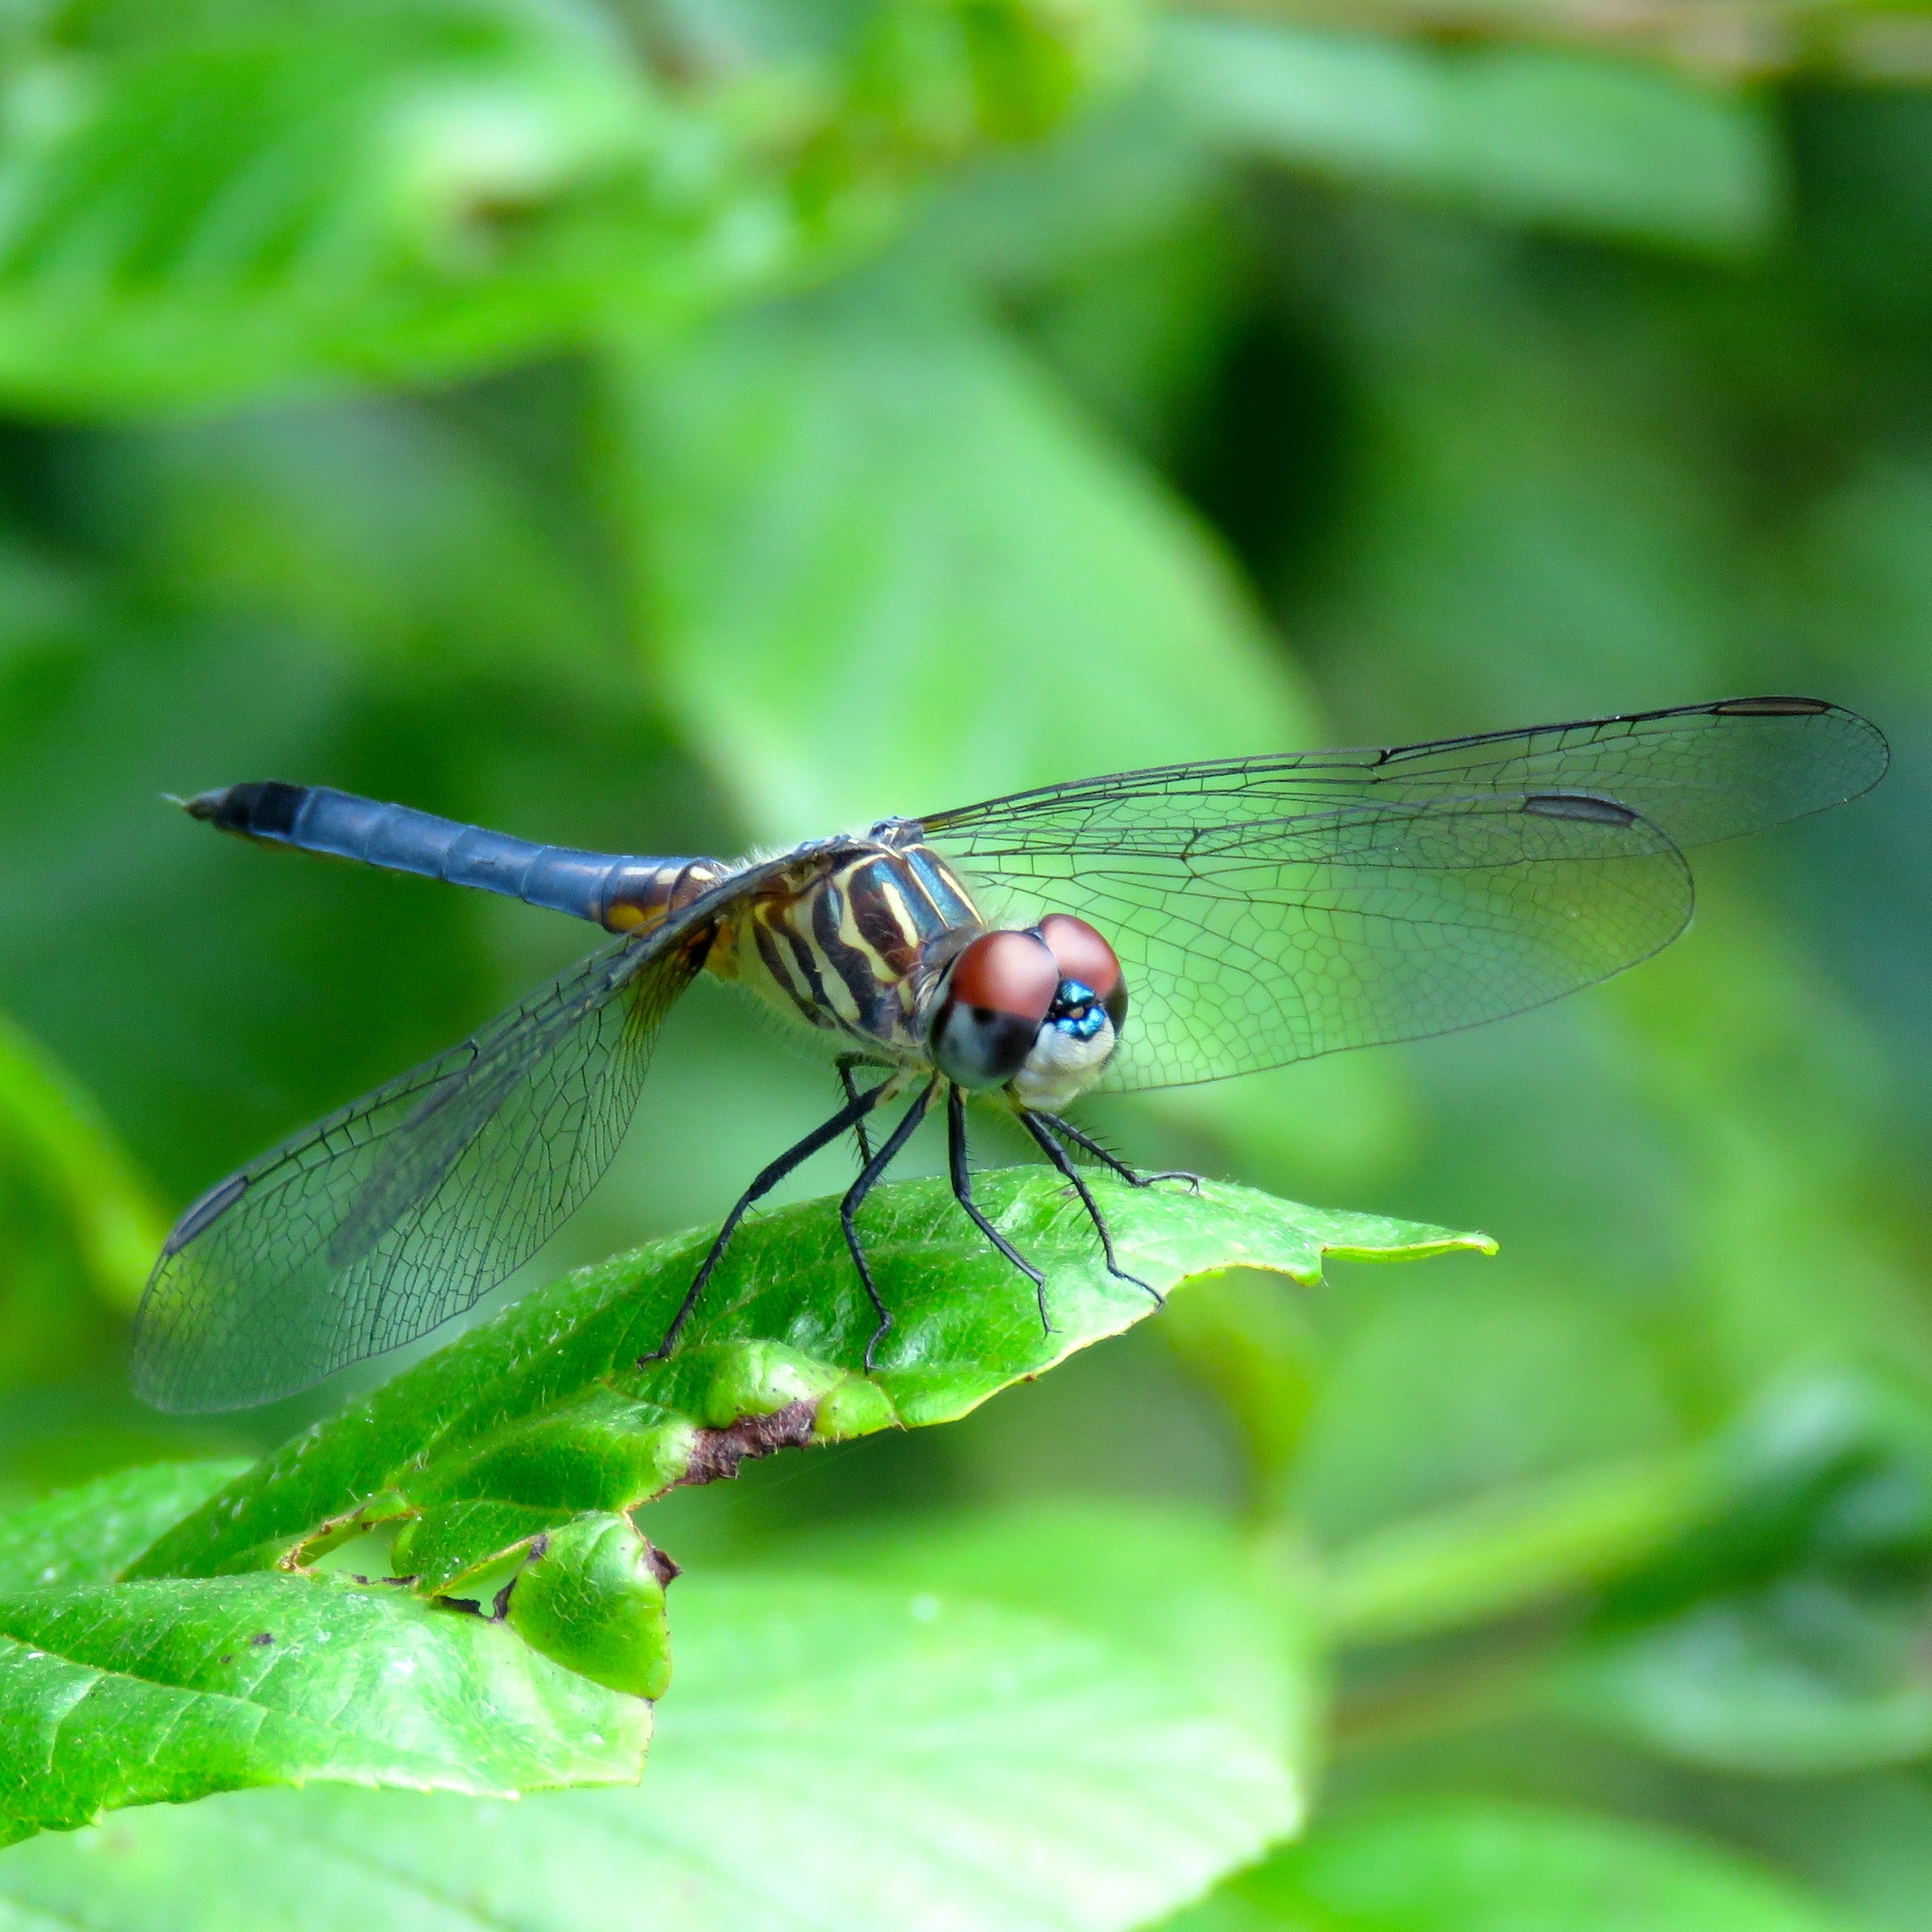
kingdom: Animalia
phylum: Arthropoda
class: Insecta
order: Odonata
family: Libellulidae
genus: Pachydiplax
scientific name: Pachydiplax longipennis
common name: Blue dasher
